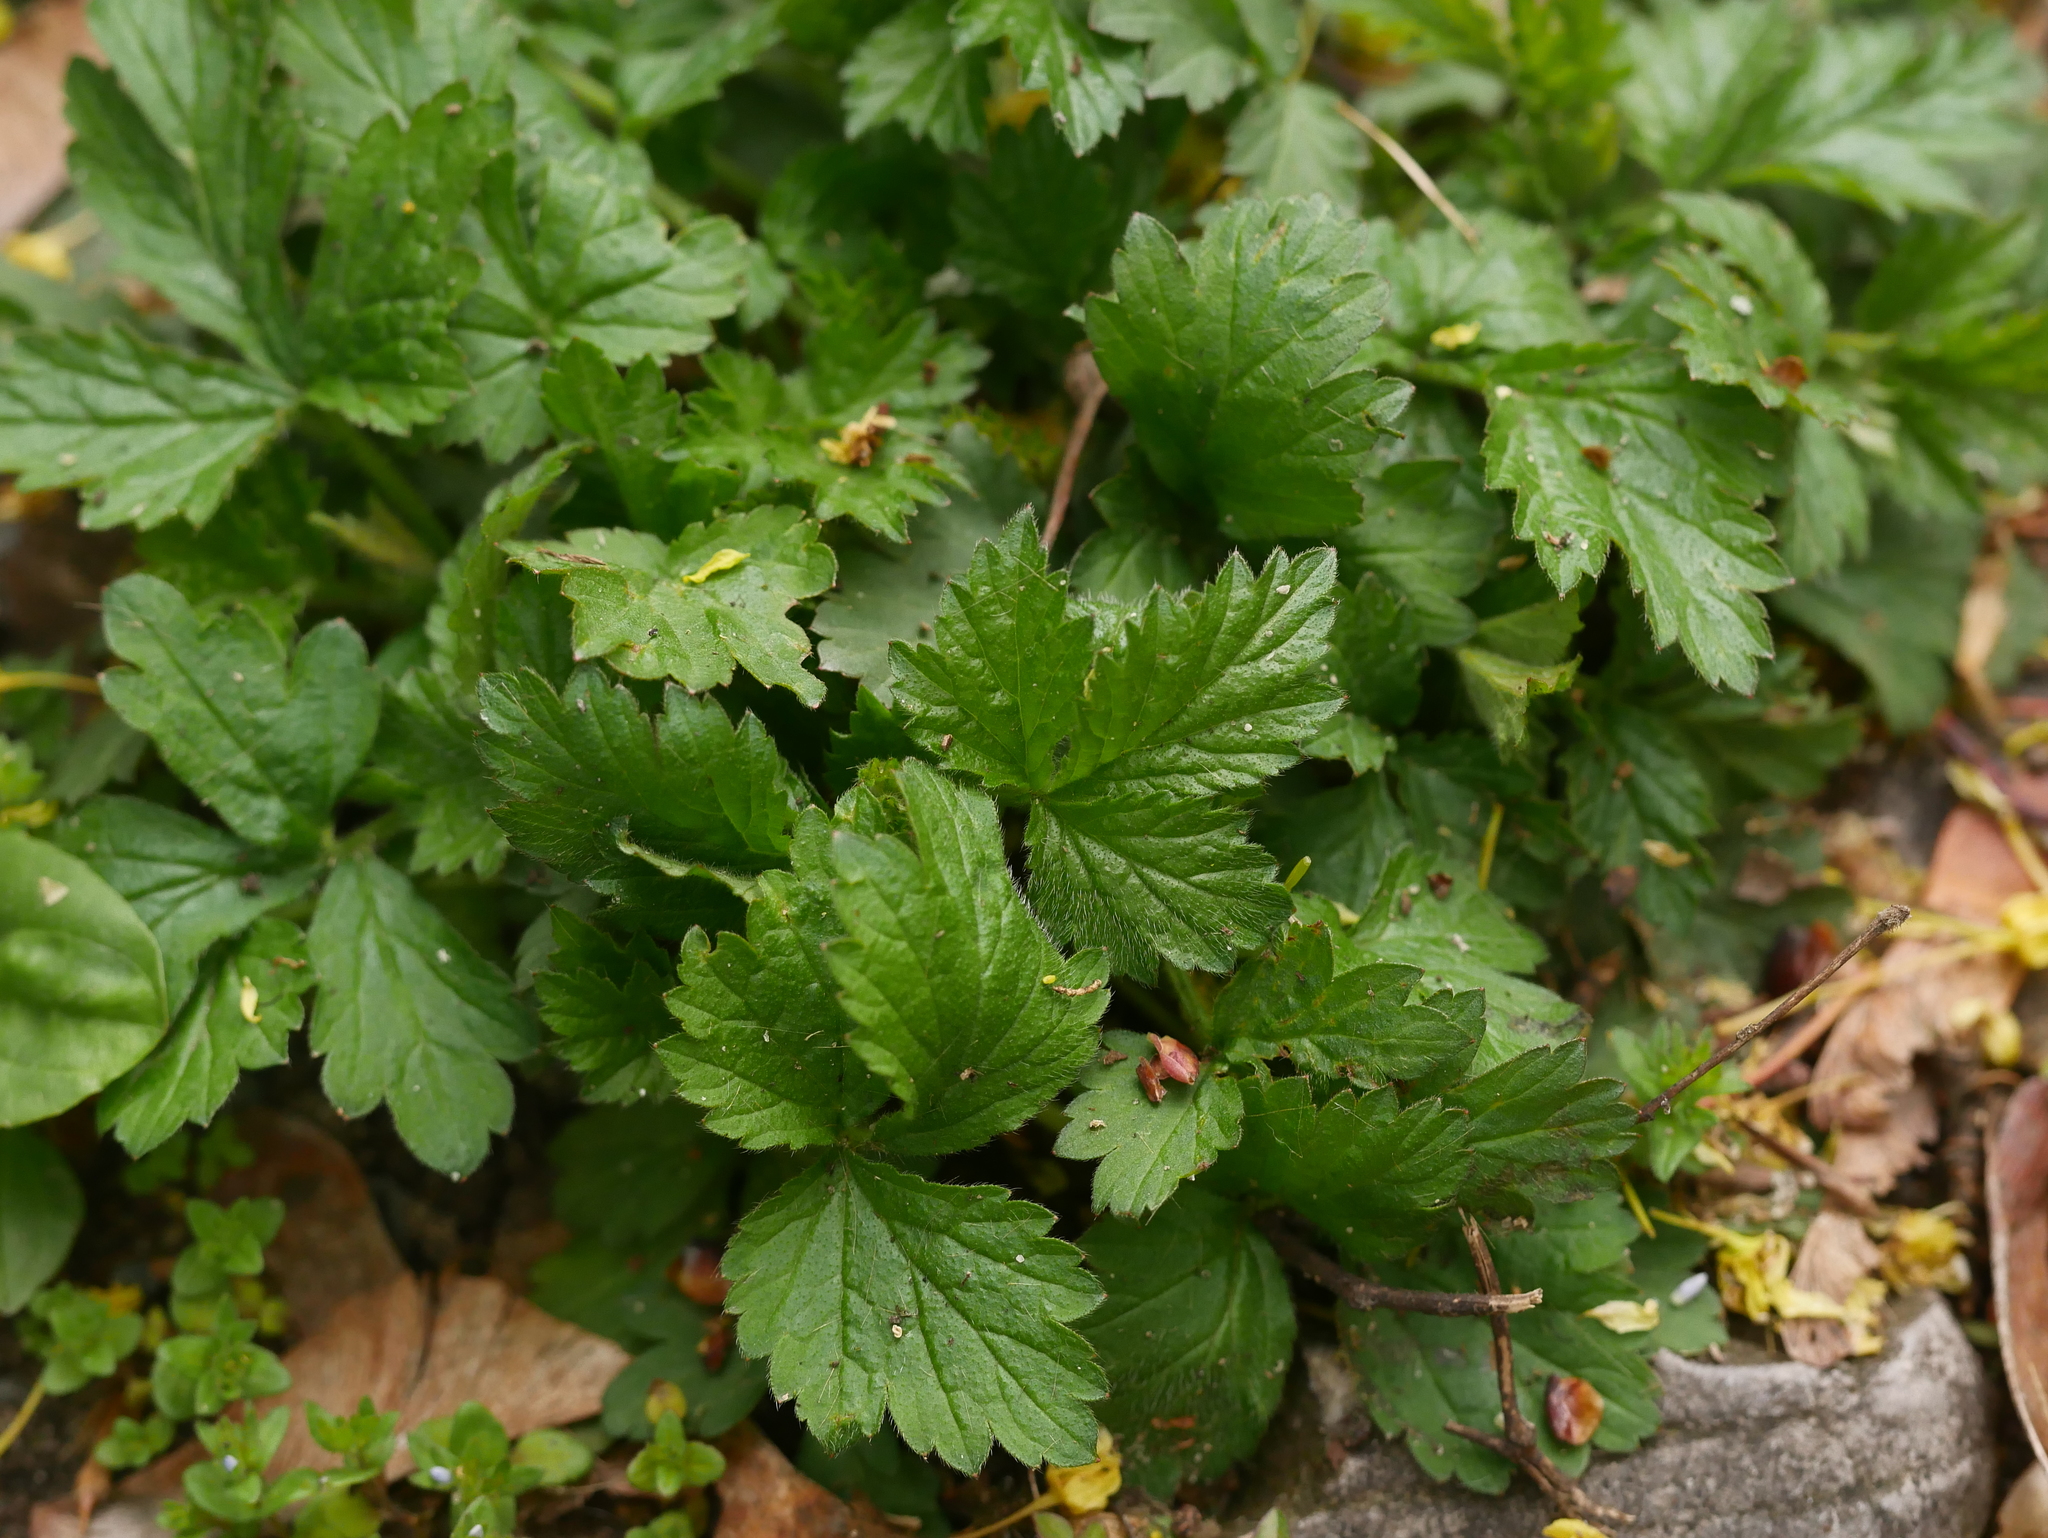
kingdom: Plantae
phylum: Tracheophyta
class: Magnoliopsida
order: Rosales
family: Rosaceae
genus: Geum
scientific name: Geum urbanum
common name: Wood avens
